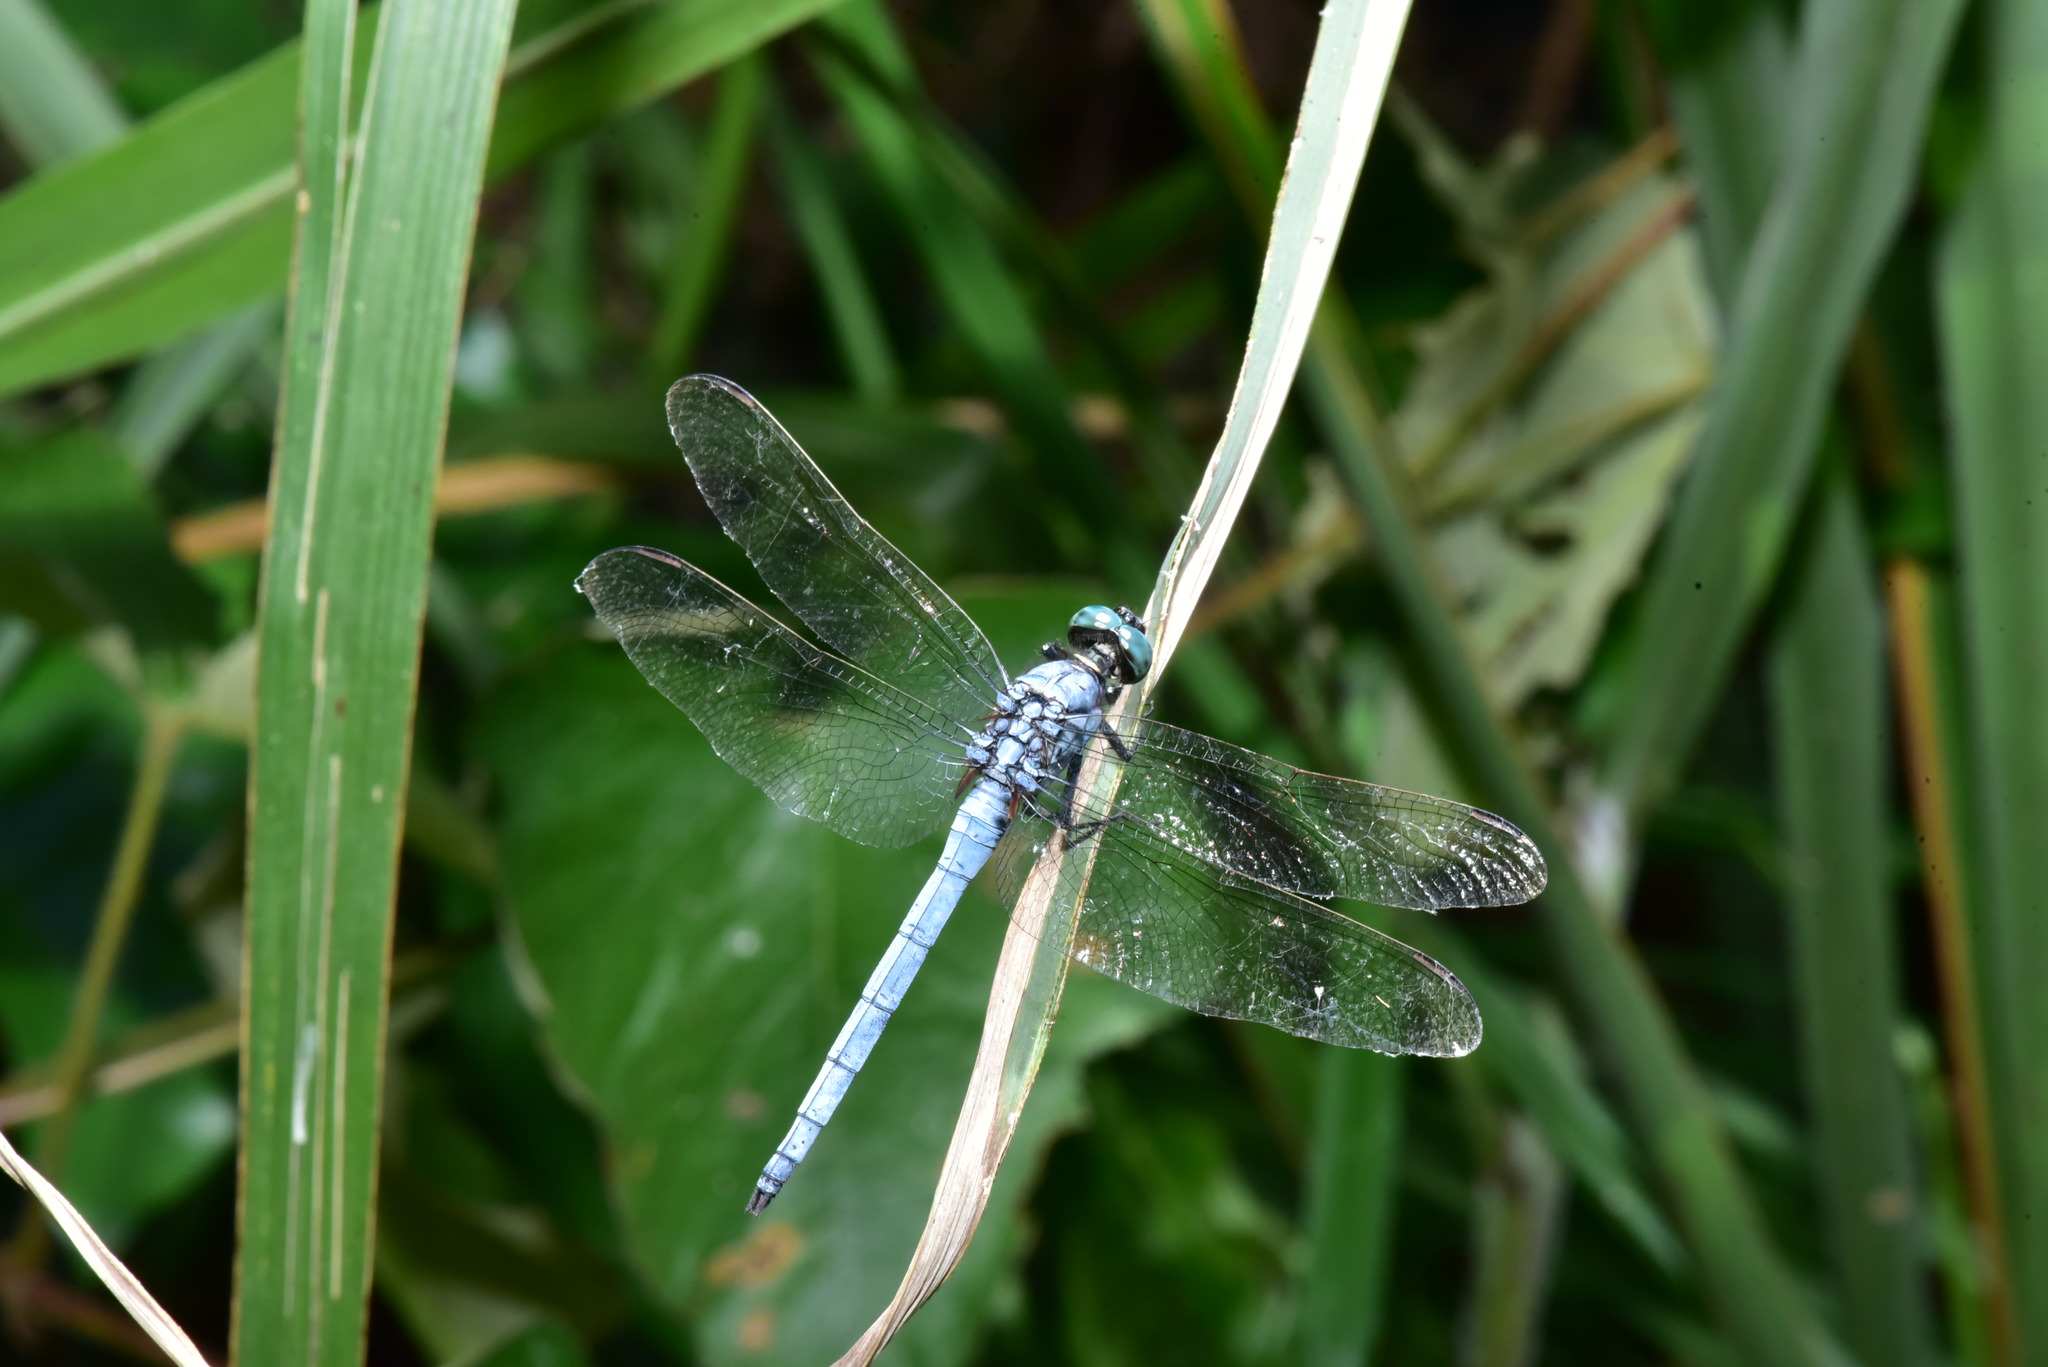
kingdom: Animalia
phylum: Arthropoda
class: Insecta
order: Odonata
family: Libellulidae
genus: Orthetrum
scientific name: Orthetrum luzonicum
